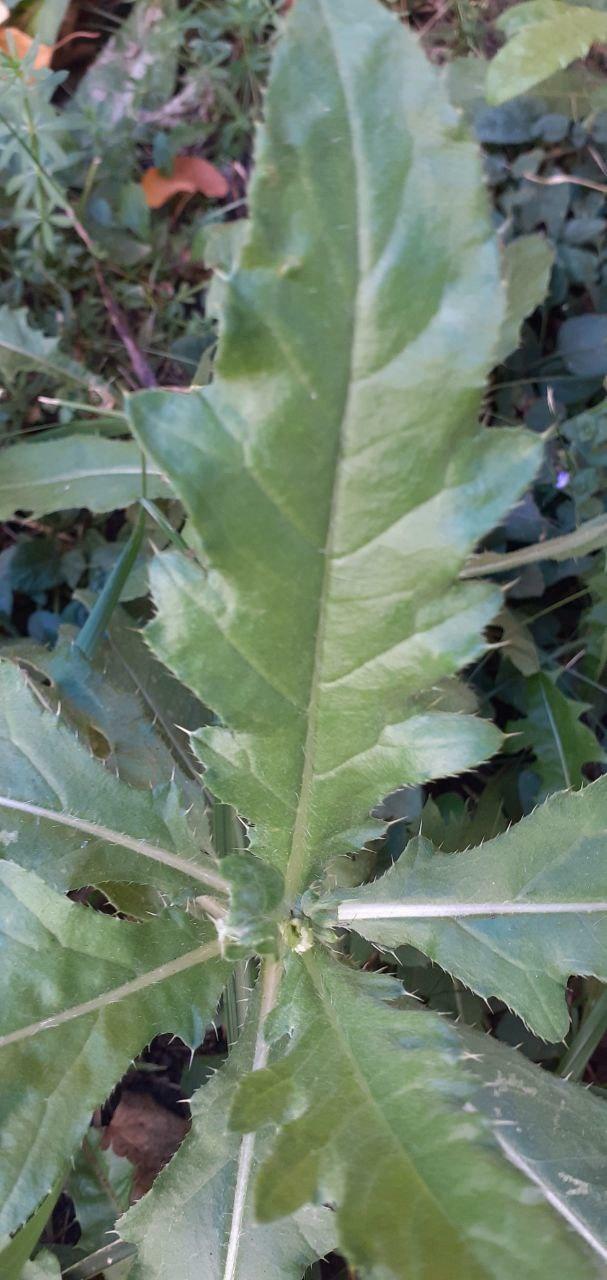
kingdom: Plantae
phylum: Tracheophyta
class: Magnoliopsida
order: Asterales
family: Asteraceae
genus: Cirsium
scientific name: Cirsium arvense
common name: Creeping thistle
